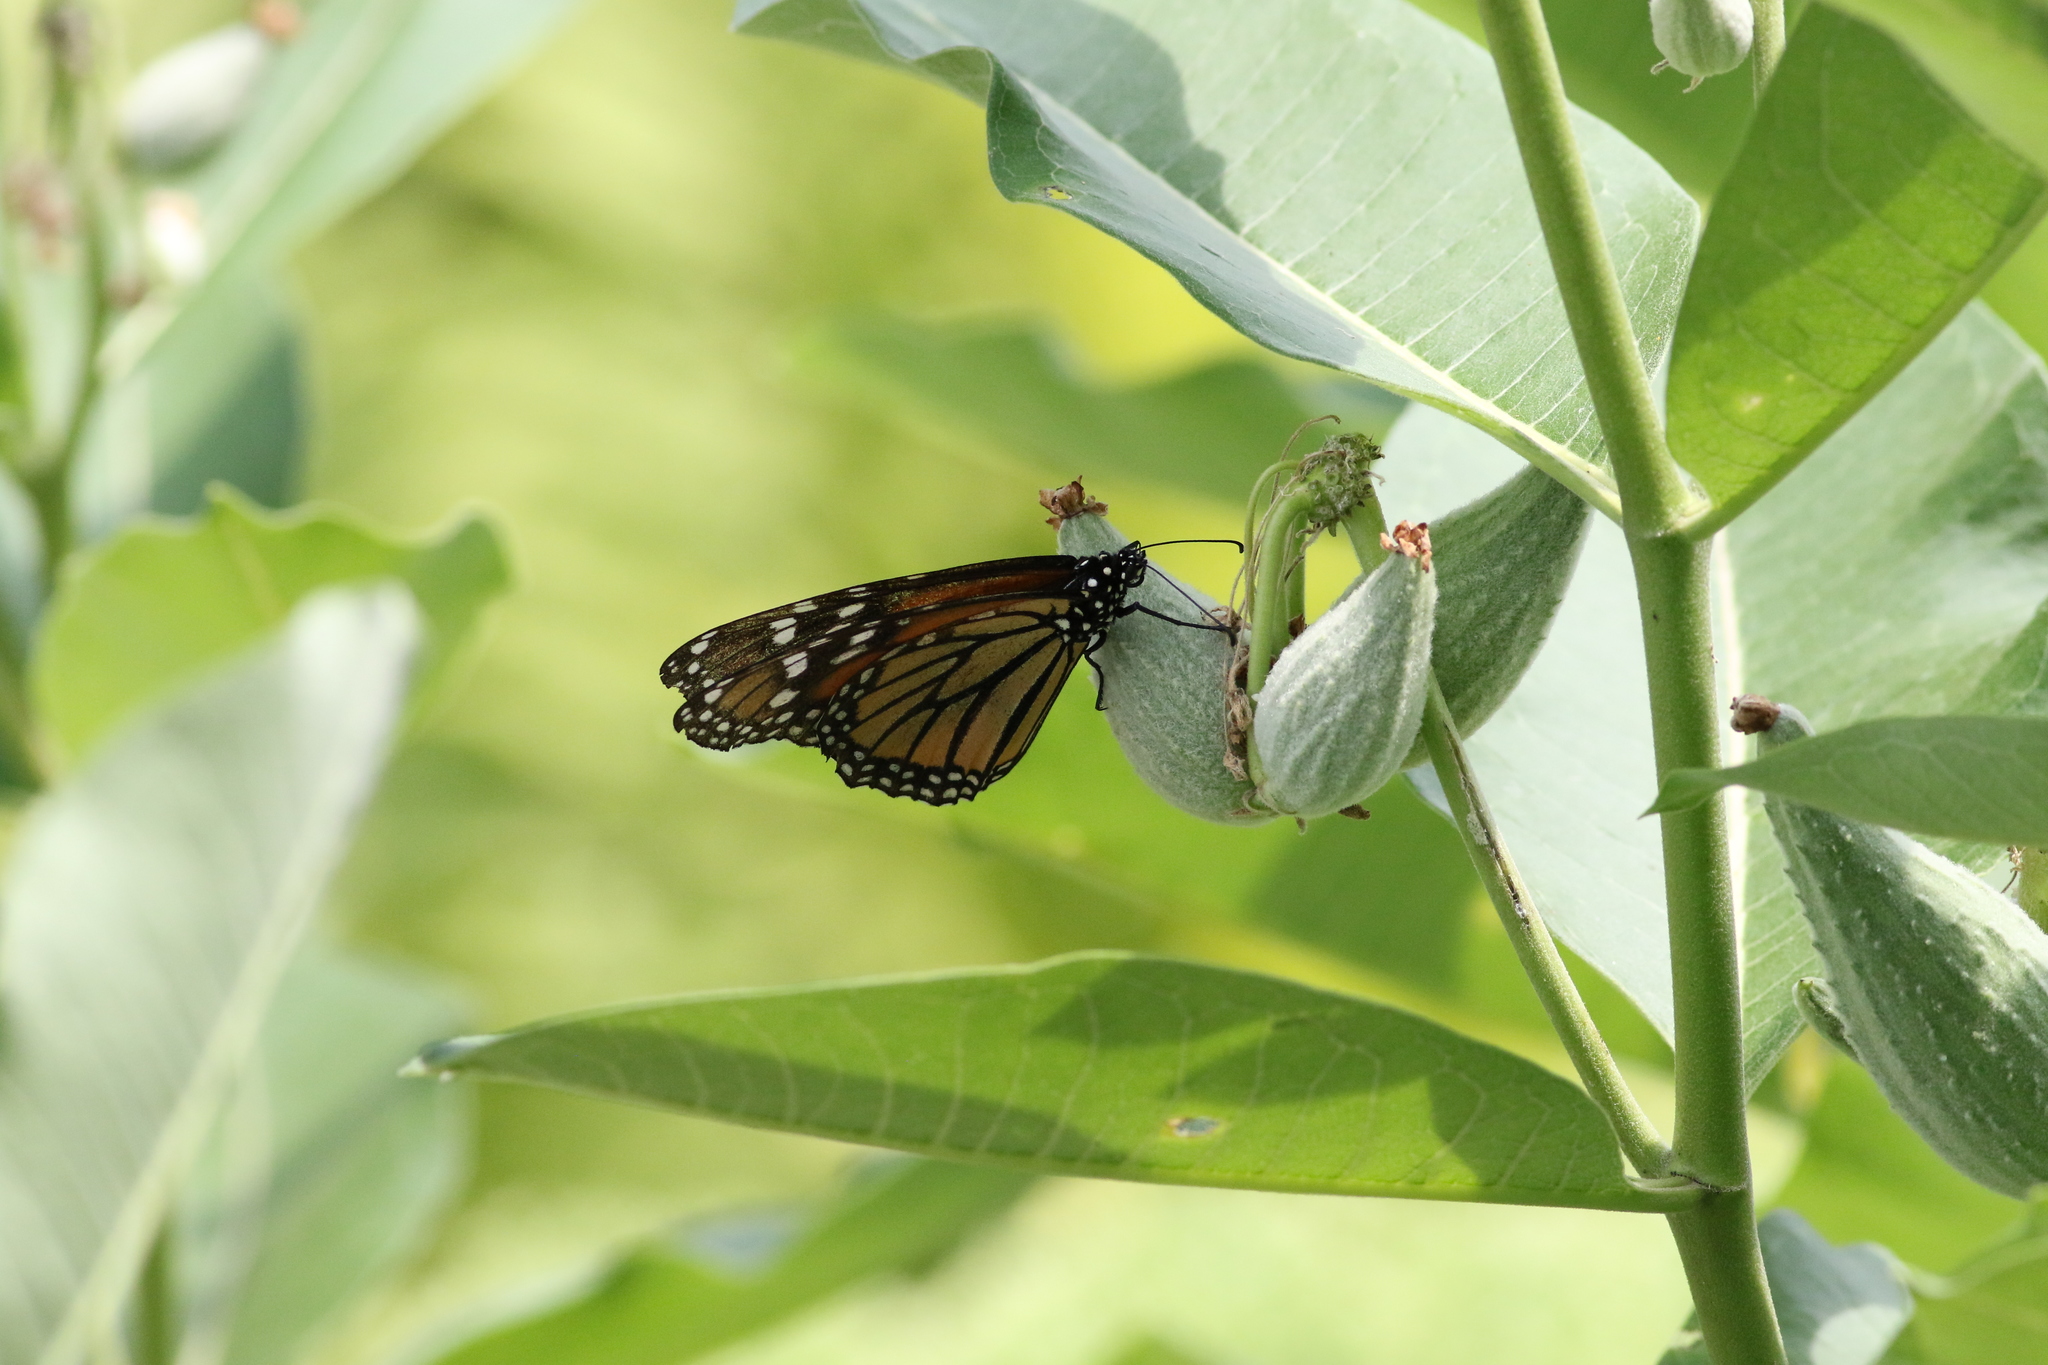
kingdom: Animalia
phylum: Arthropoda
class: Insecta
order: Lepidoptera
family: Nymphalidae
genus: Danaus
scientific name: Danaus plexippus
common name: Monarch
